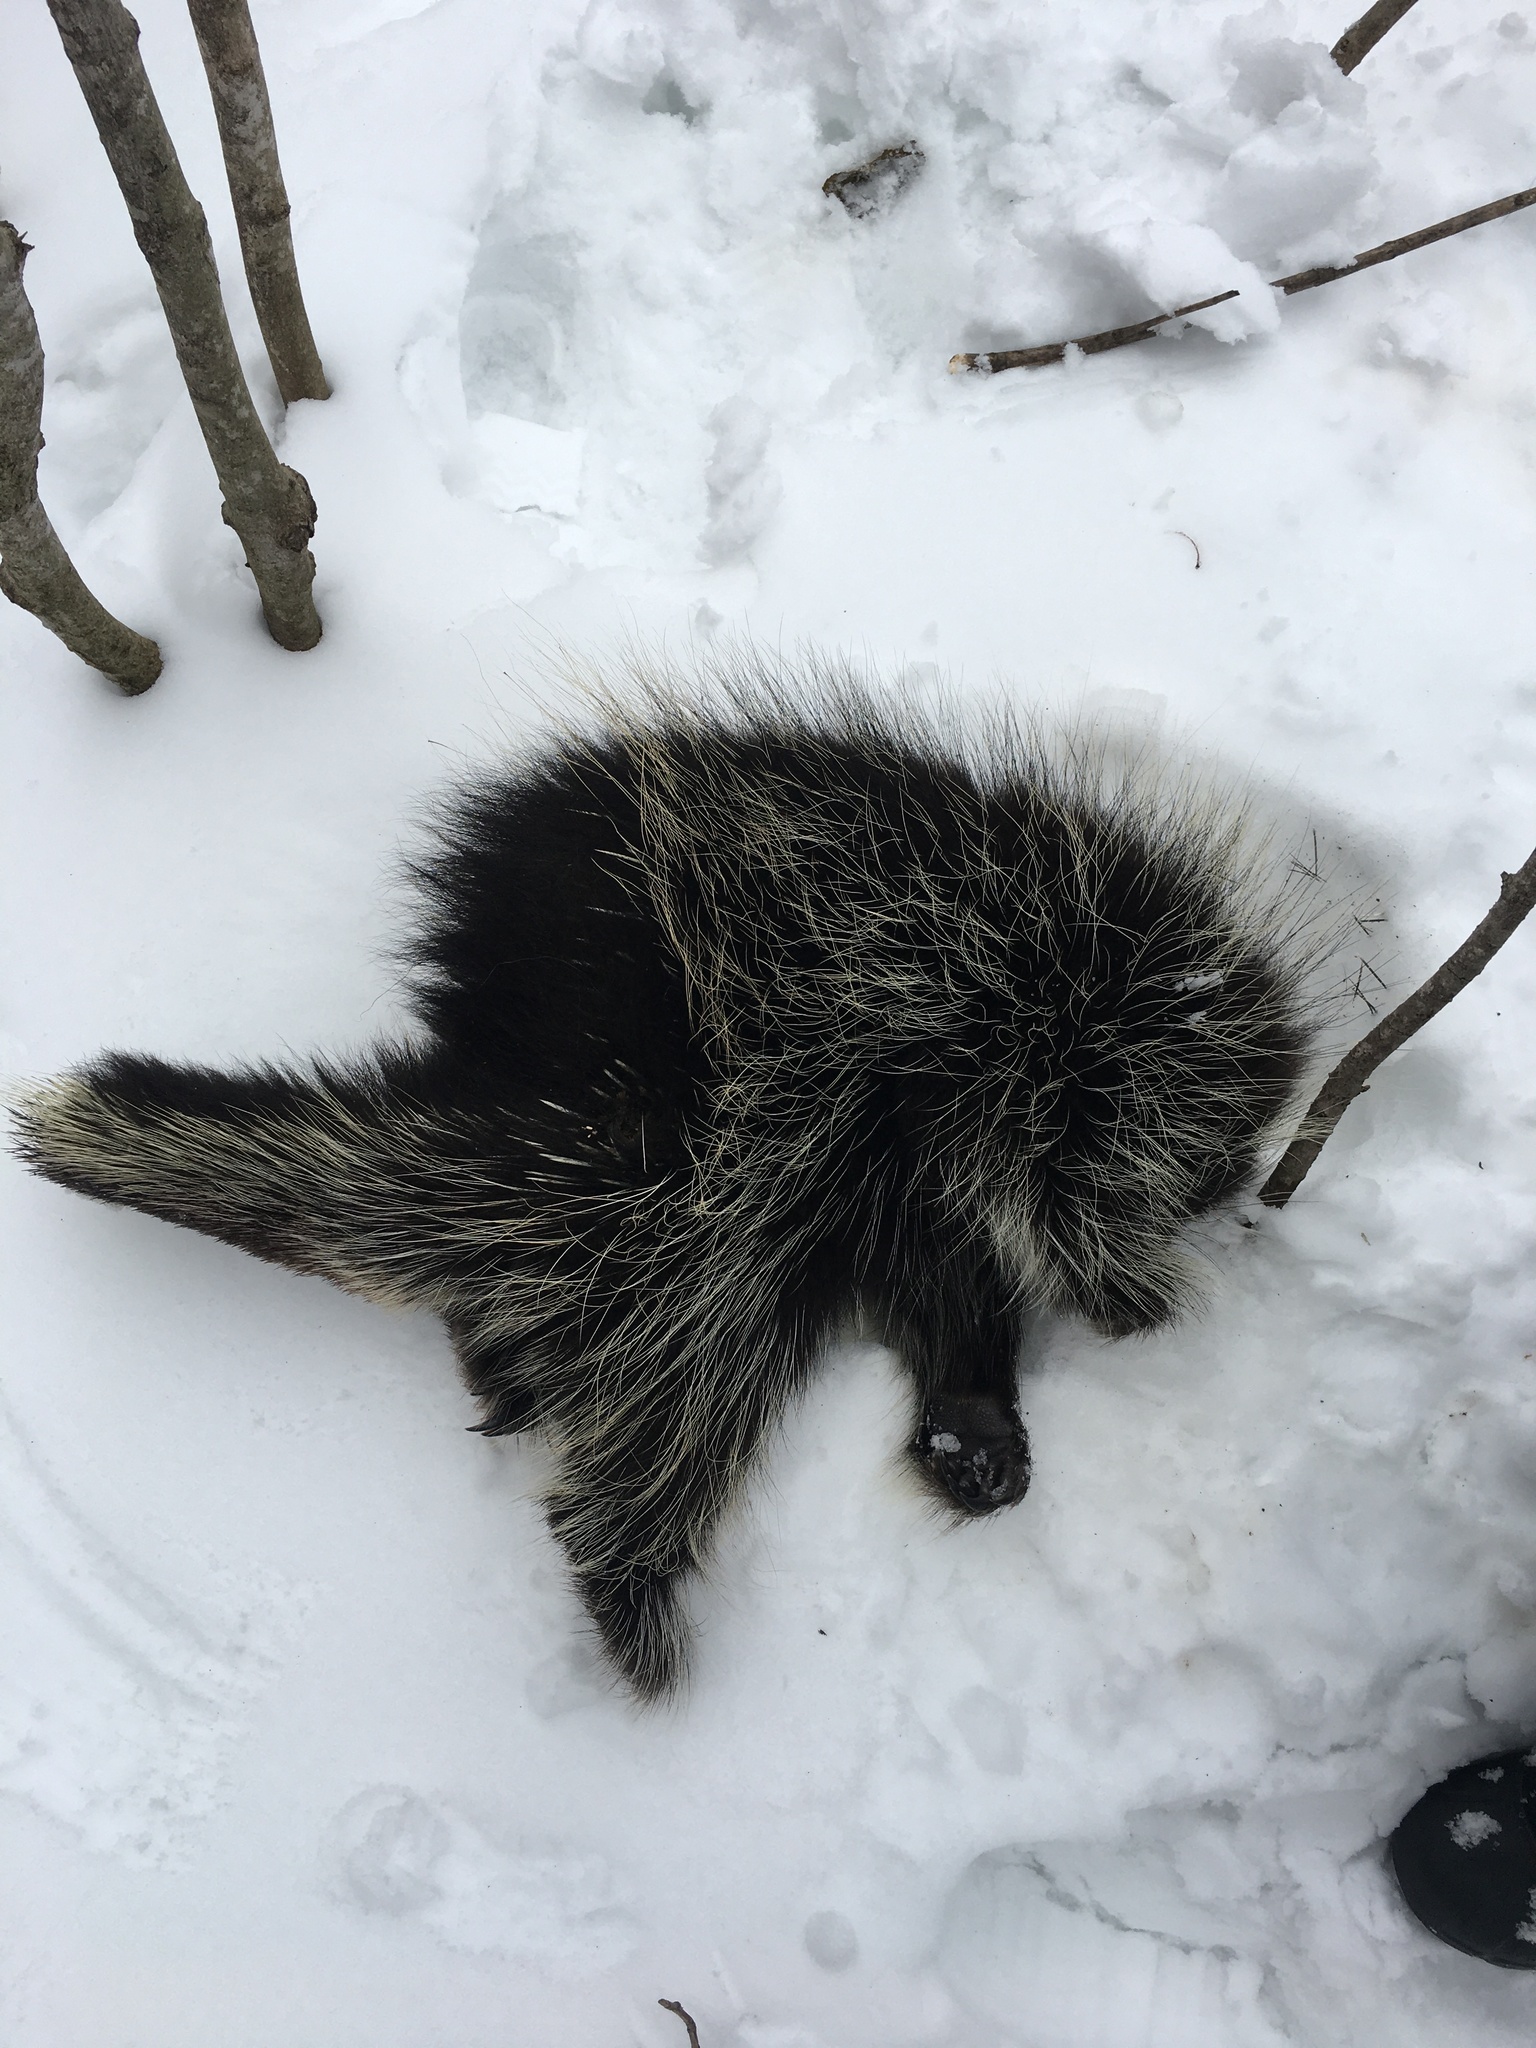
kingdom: Animalia
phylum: Chordata
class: Mammalia
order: Rodentia
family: Erethizontidae
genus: Erethizon
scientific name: Erethizon dorsatus
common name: North american porcupine
